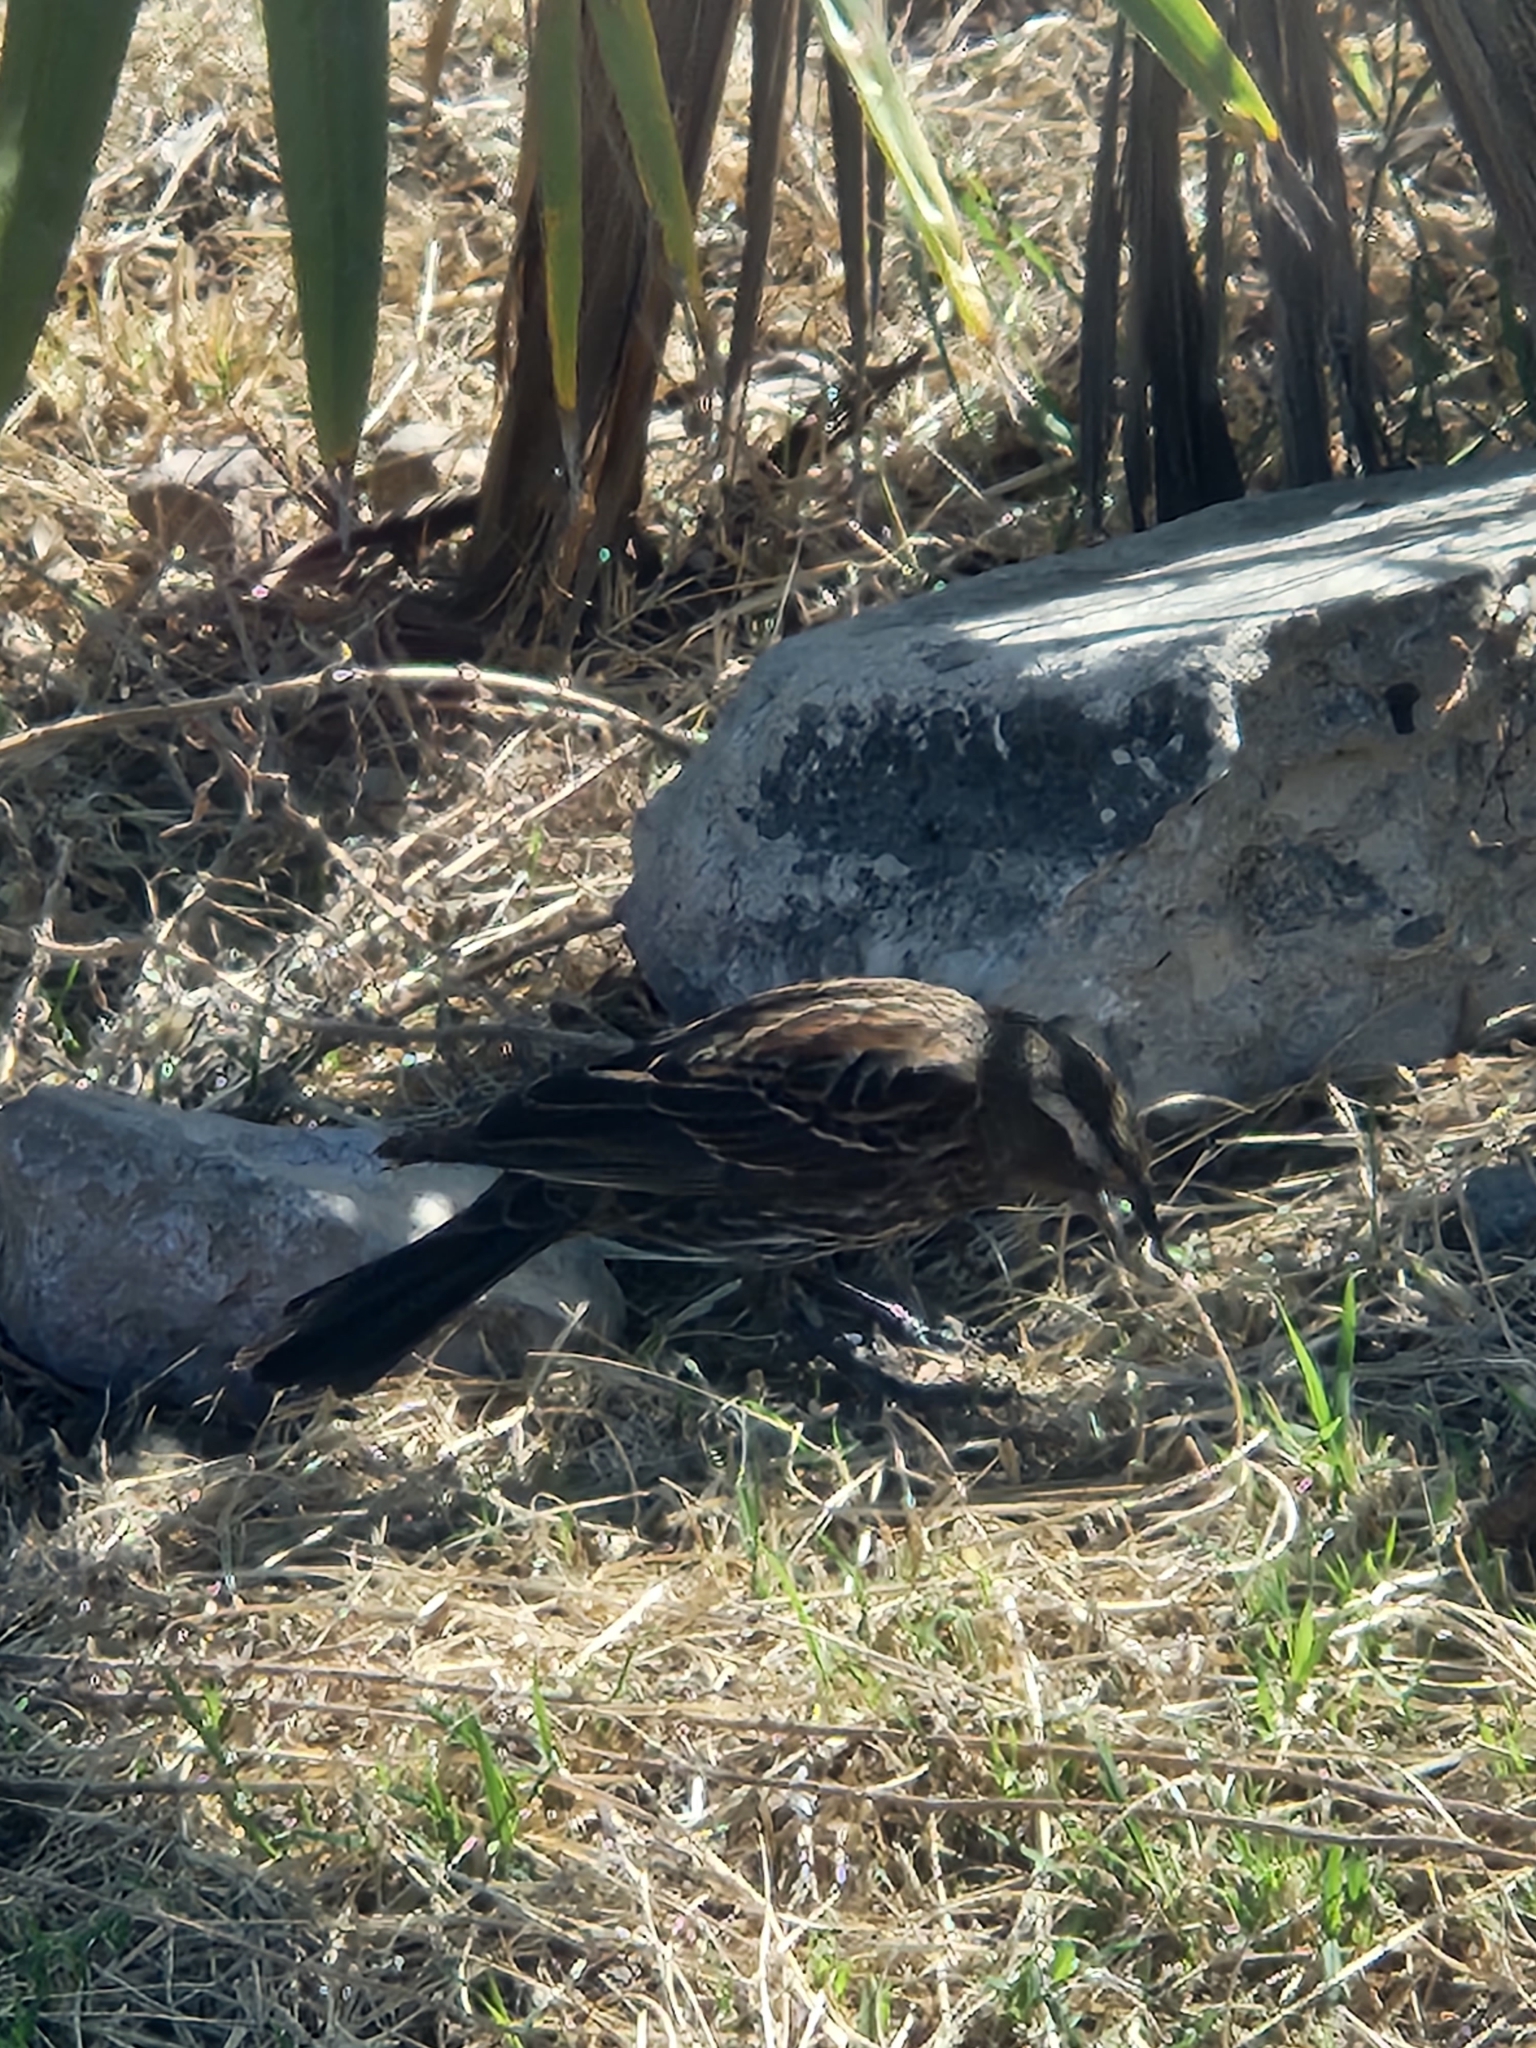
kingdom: Animalia
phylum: Chordata
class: Aves
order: Passeriformes
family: Icteridae
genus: Agelaius
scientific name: Agelaius phoeniceus
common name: Red-winged blackbird
